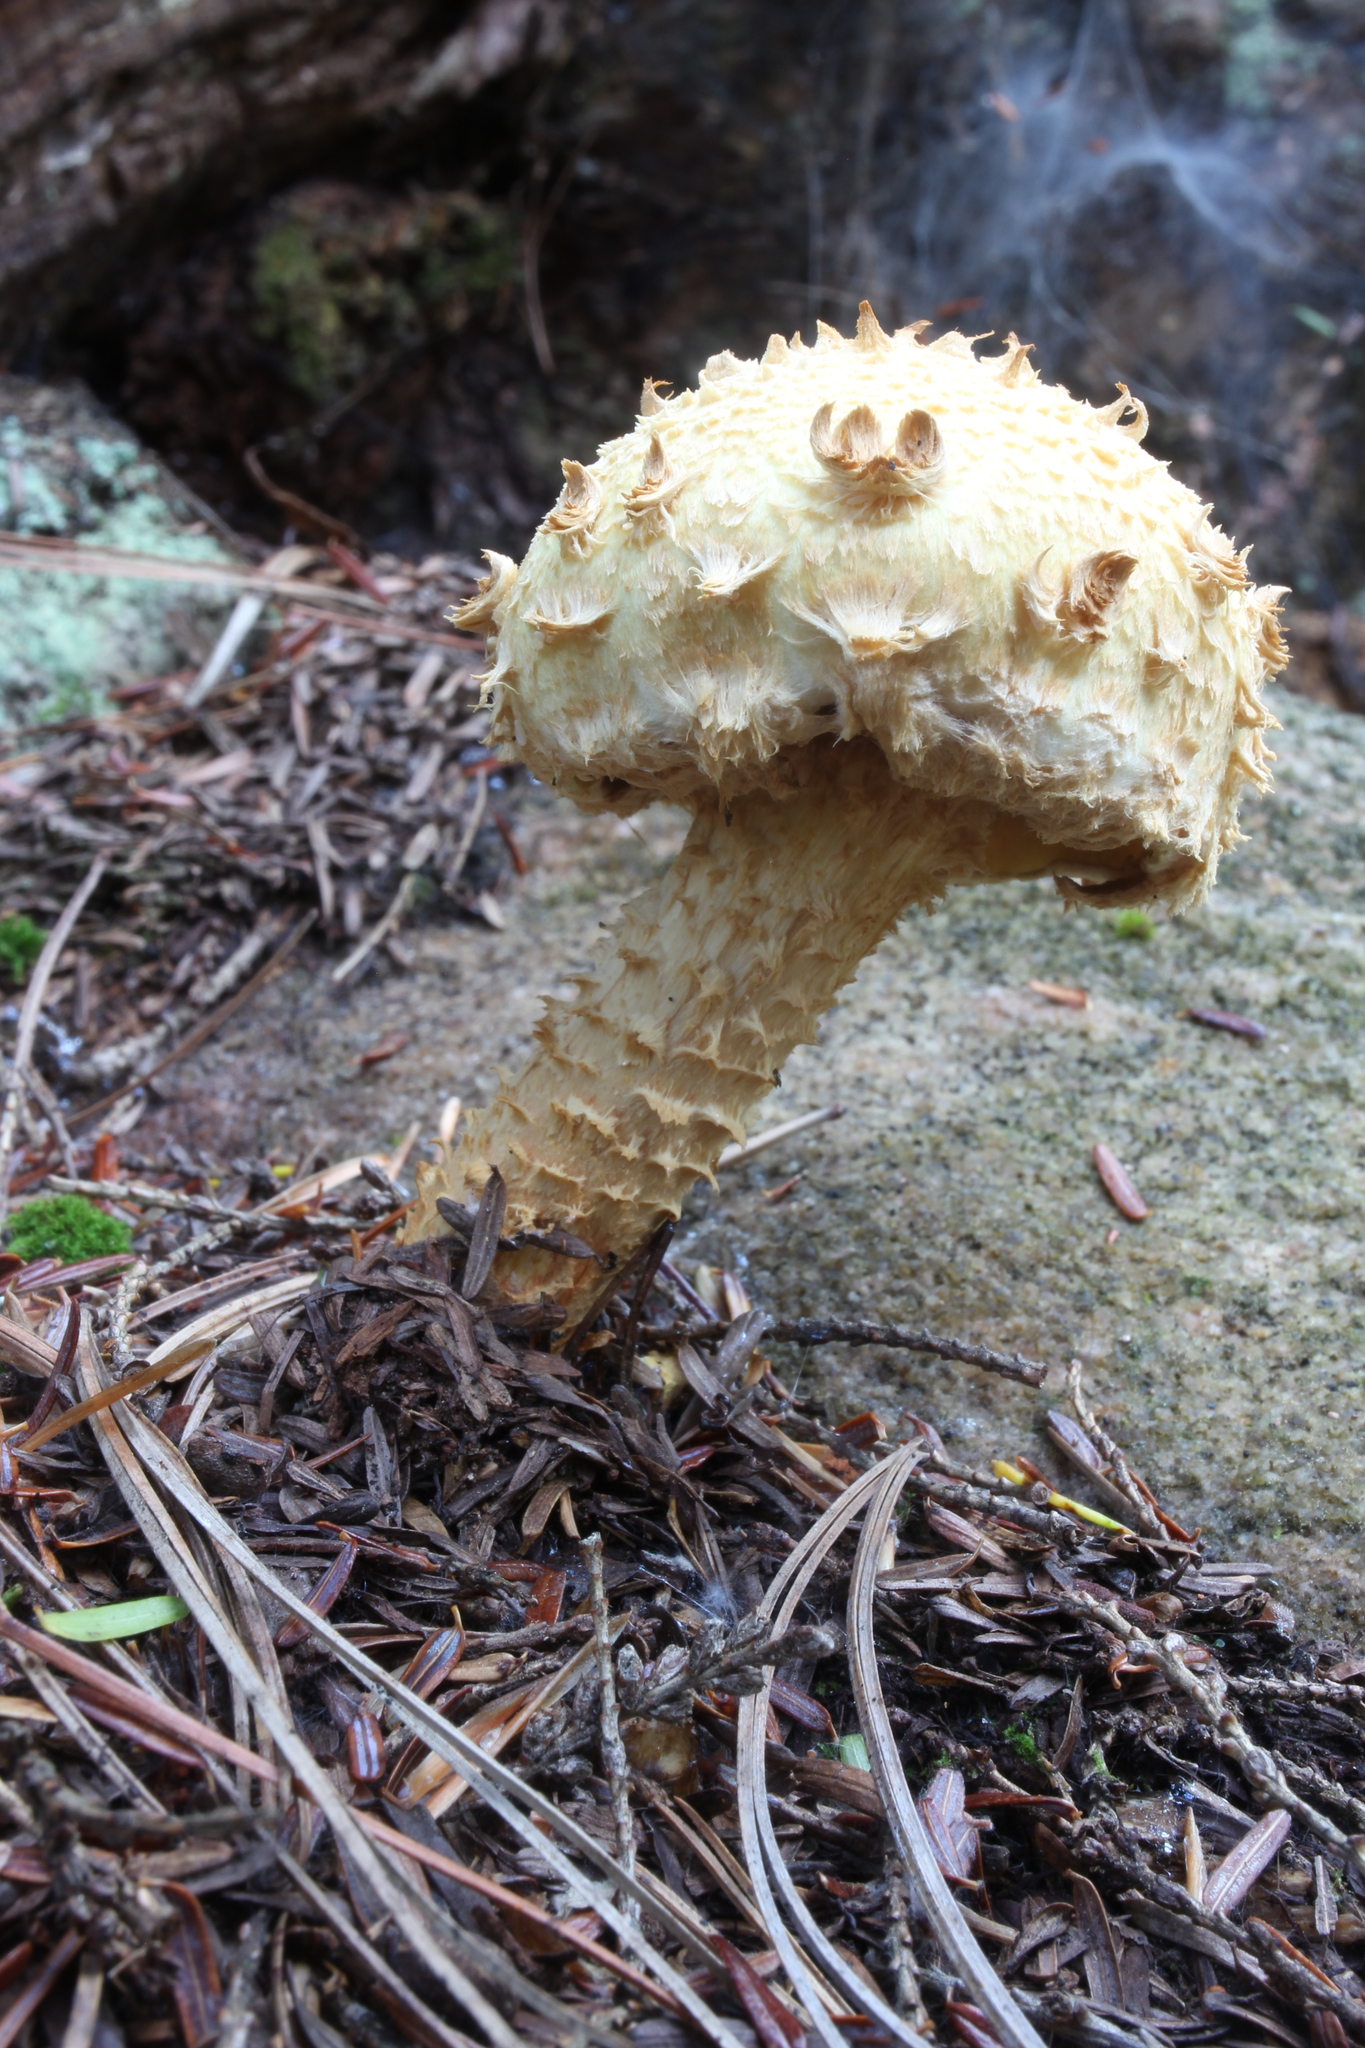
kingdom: Fungi
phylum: Basidiomycota
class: Agaricomycetes
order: Agaricales
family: Strophariaceae
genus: Pholiota
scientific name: Pholiota squarrosa
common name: Shaggy pholiota
